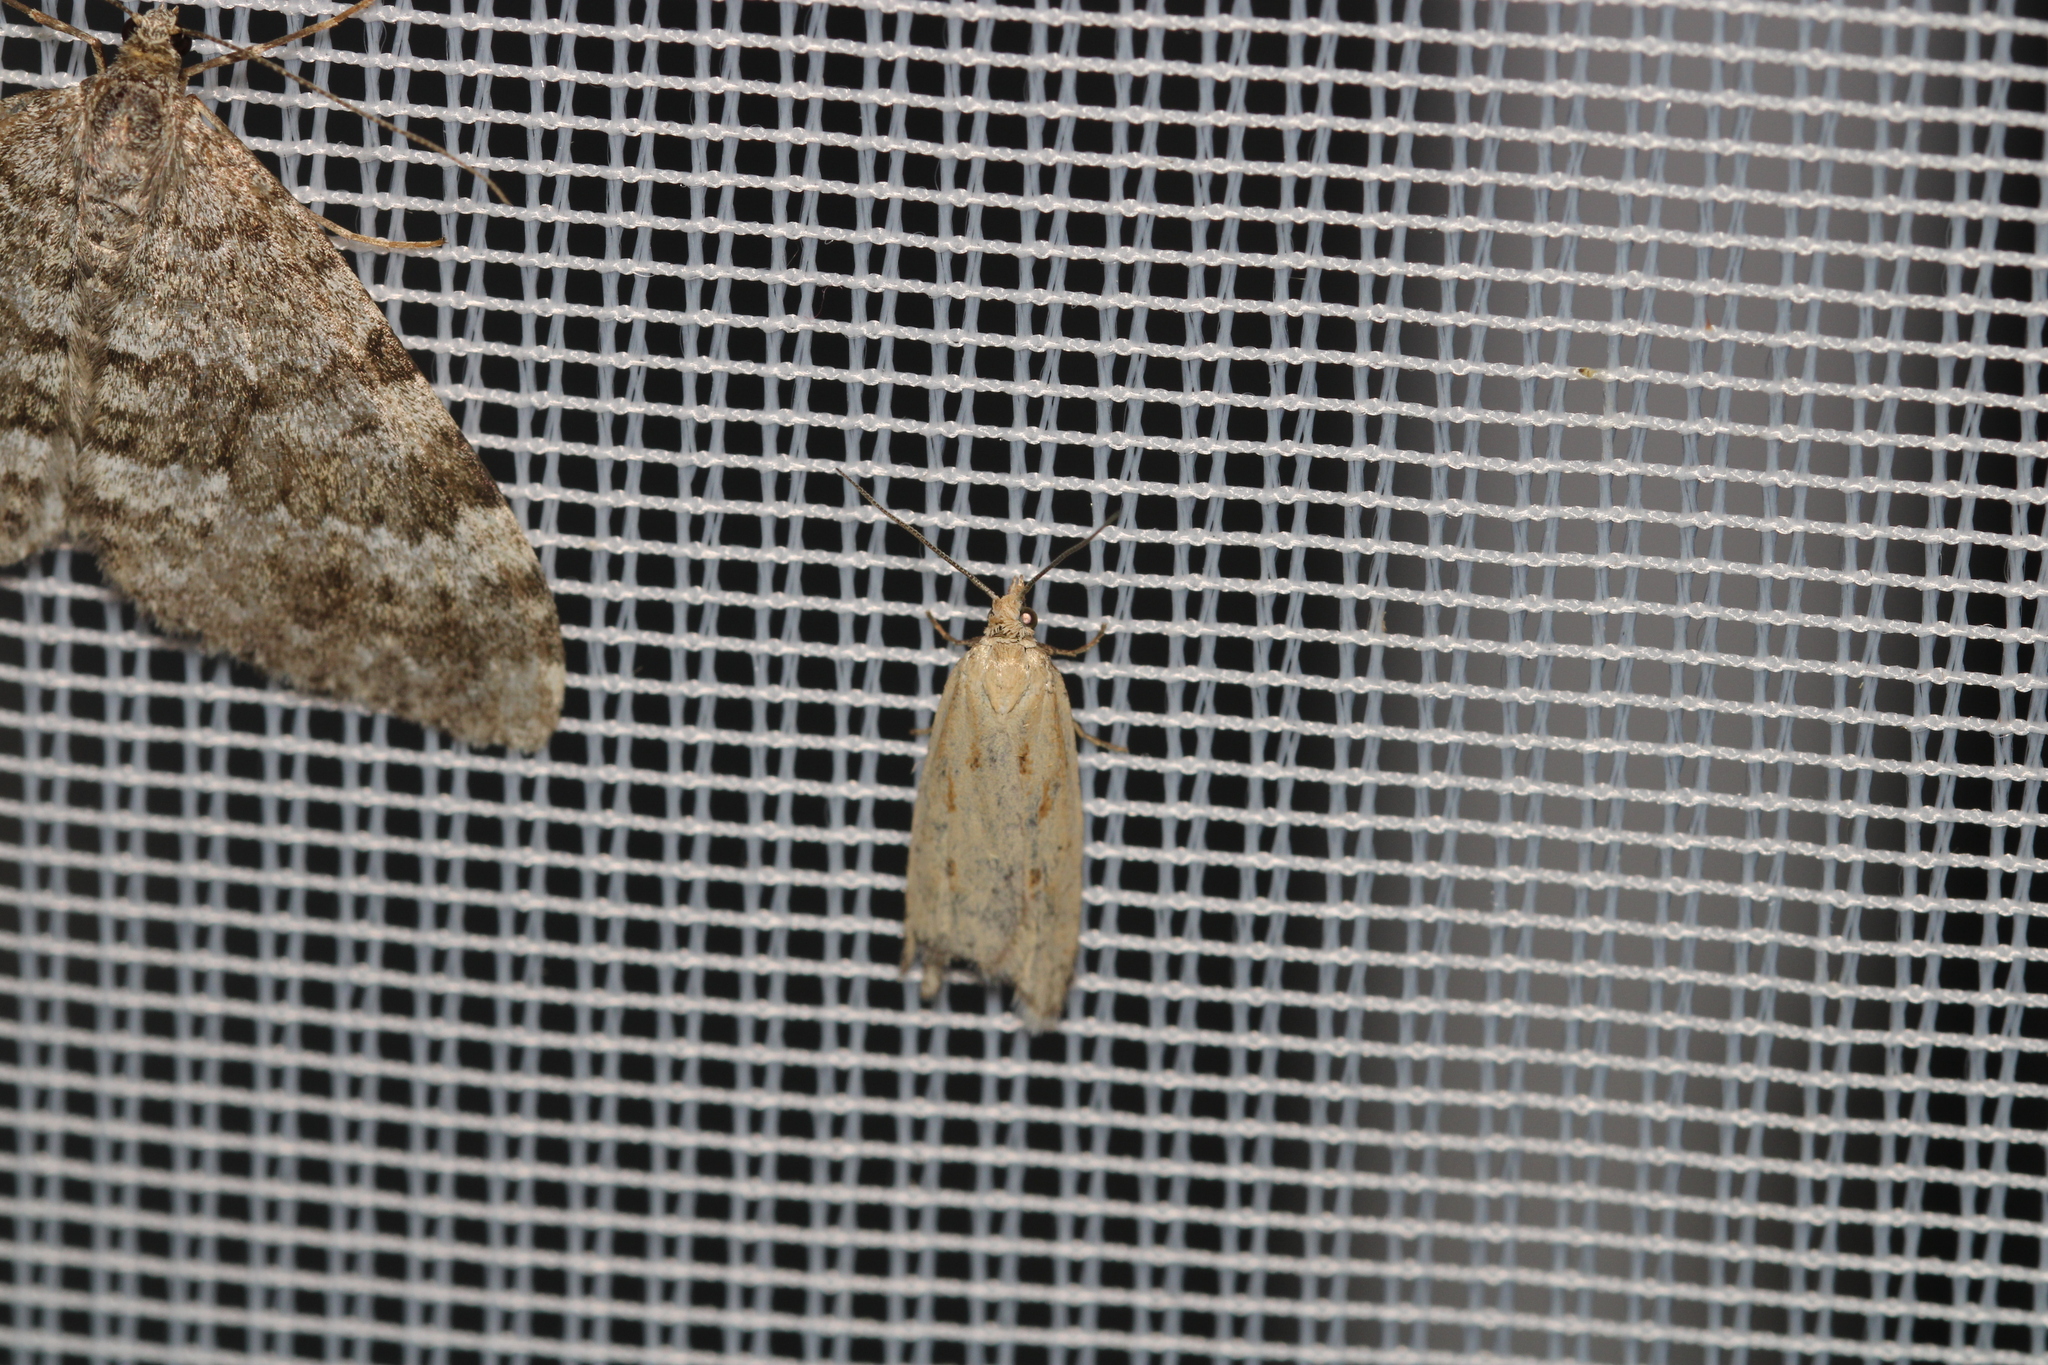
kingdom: Animalia
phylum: Arthropoda
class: Insecta
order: Lepidoptera
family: Tortricidae
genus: Eana
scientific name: Eana osseana
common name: Dotted shade
